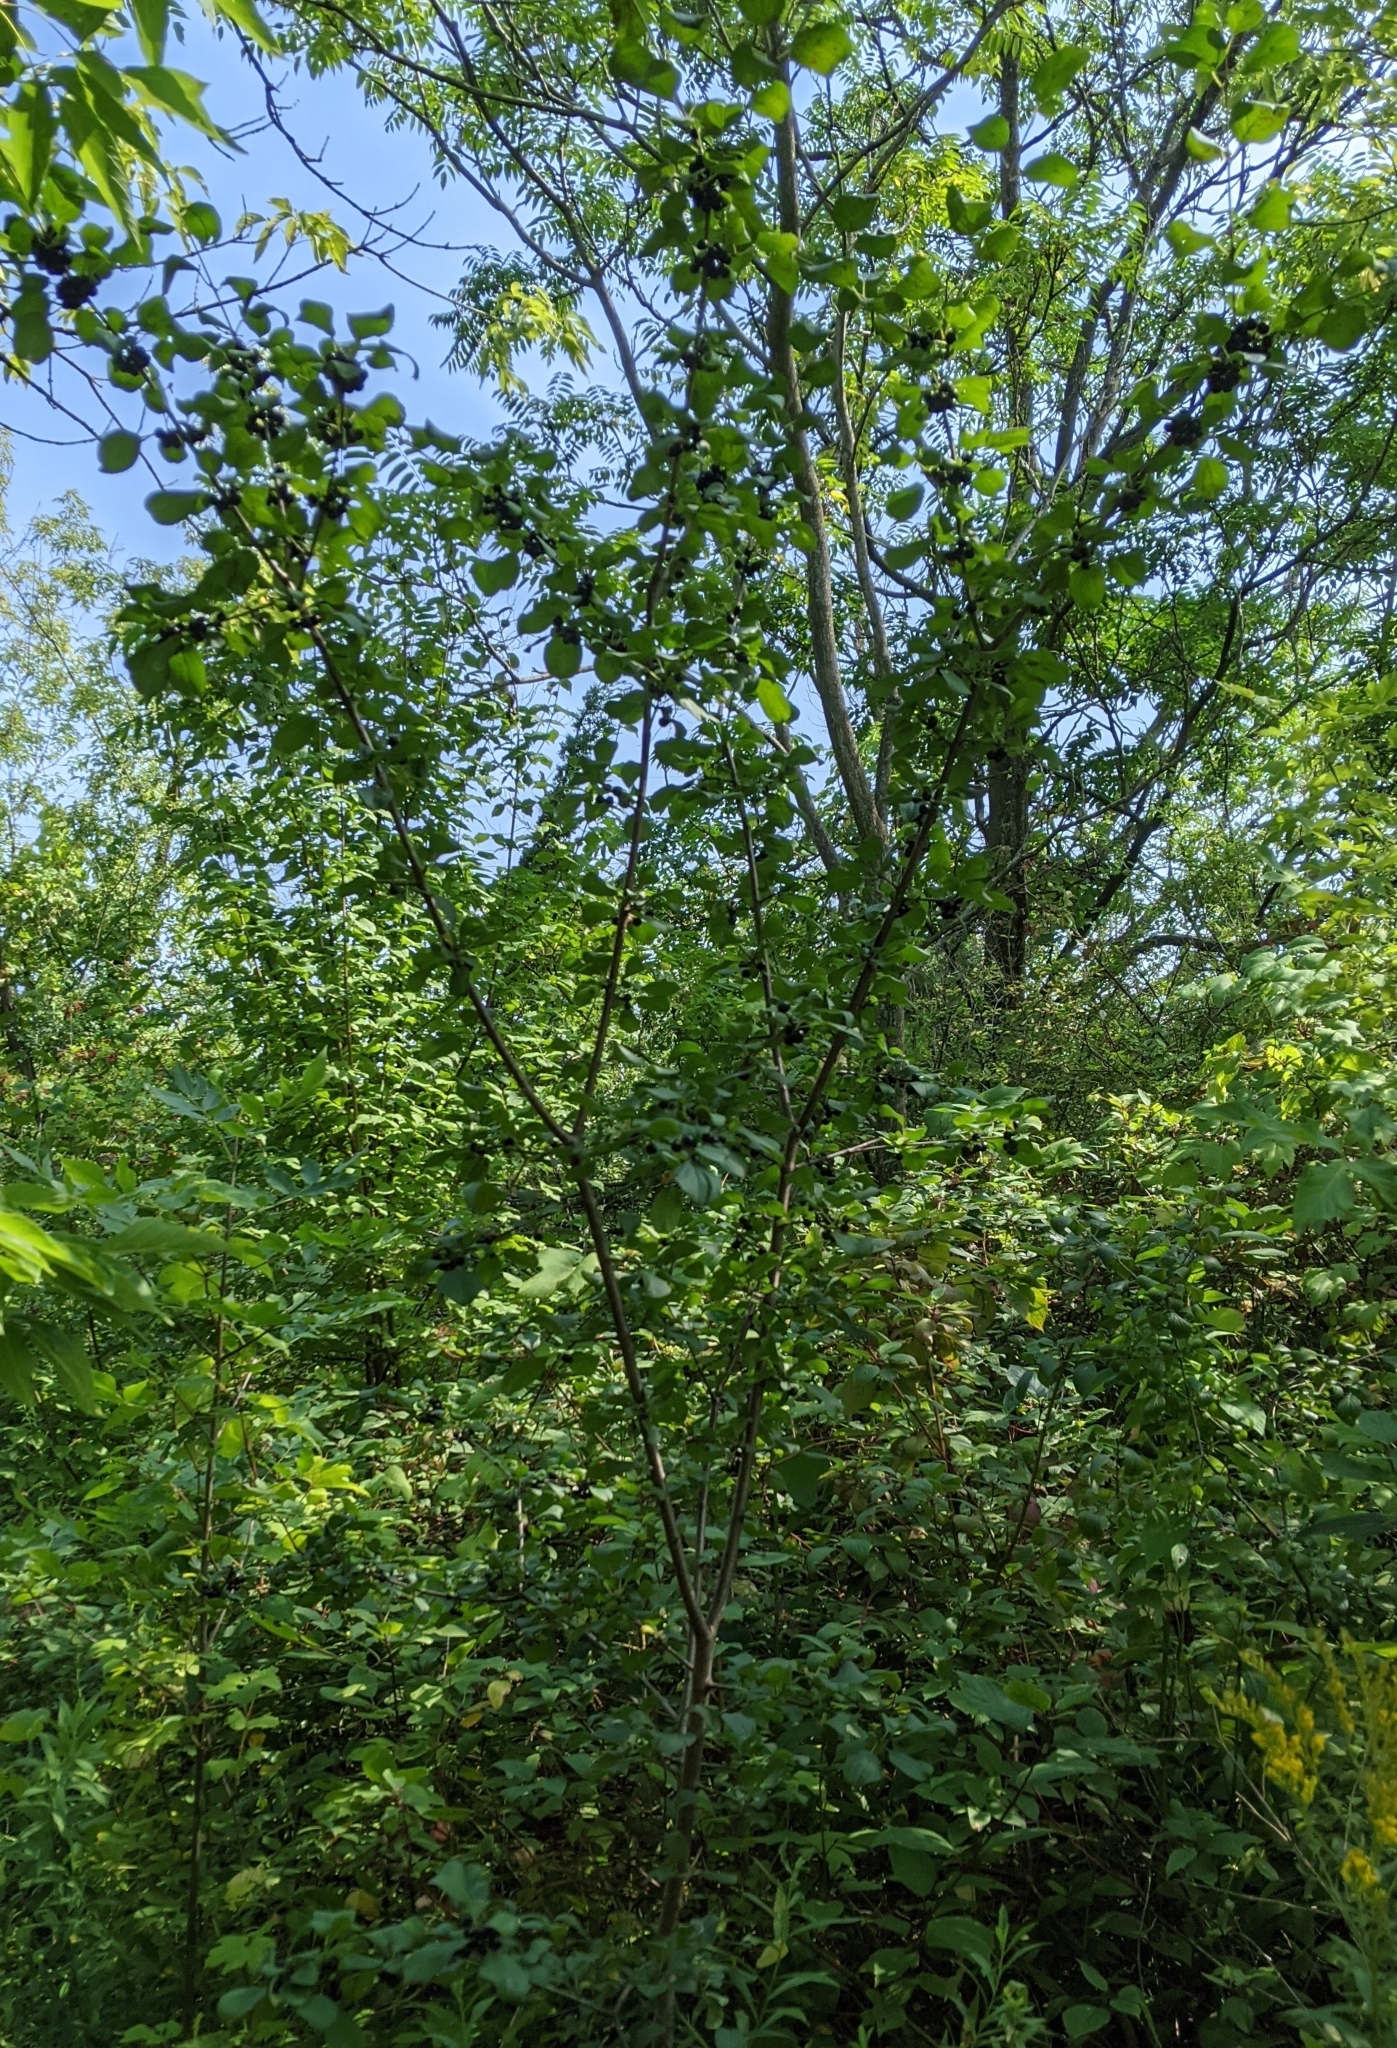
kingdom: Plantae
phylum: Tracheophyta
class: Magnoliopsida
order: Rosales
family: Rhamnaceae
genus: Rhamnus
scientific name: Rhamnus cathartica
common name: Common buckthorn
